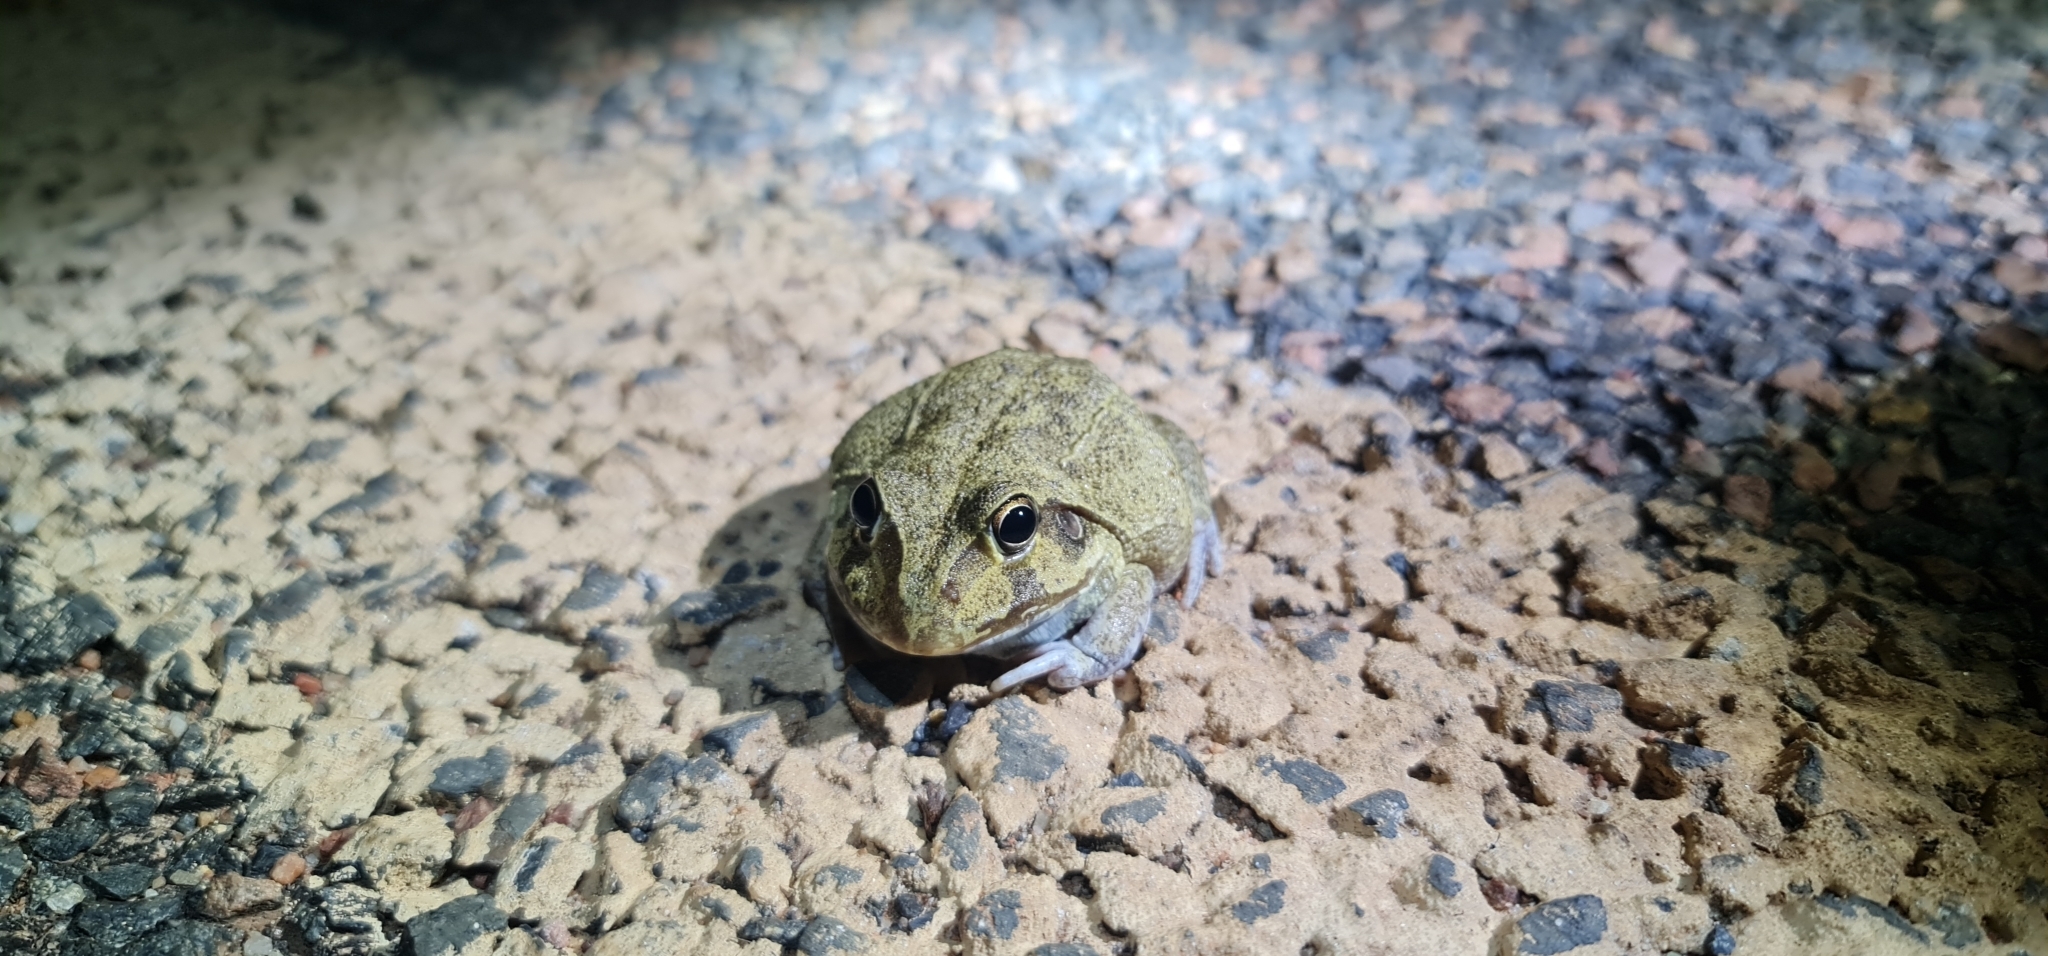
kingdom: Animalia
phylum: Chordata
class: Amphibia
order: Anura
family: Pelodryadidae
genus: Ranoidea
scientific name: Ranoidea novaehollandiae
